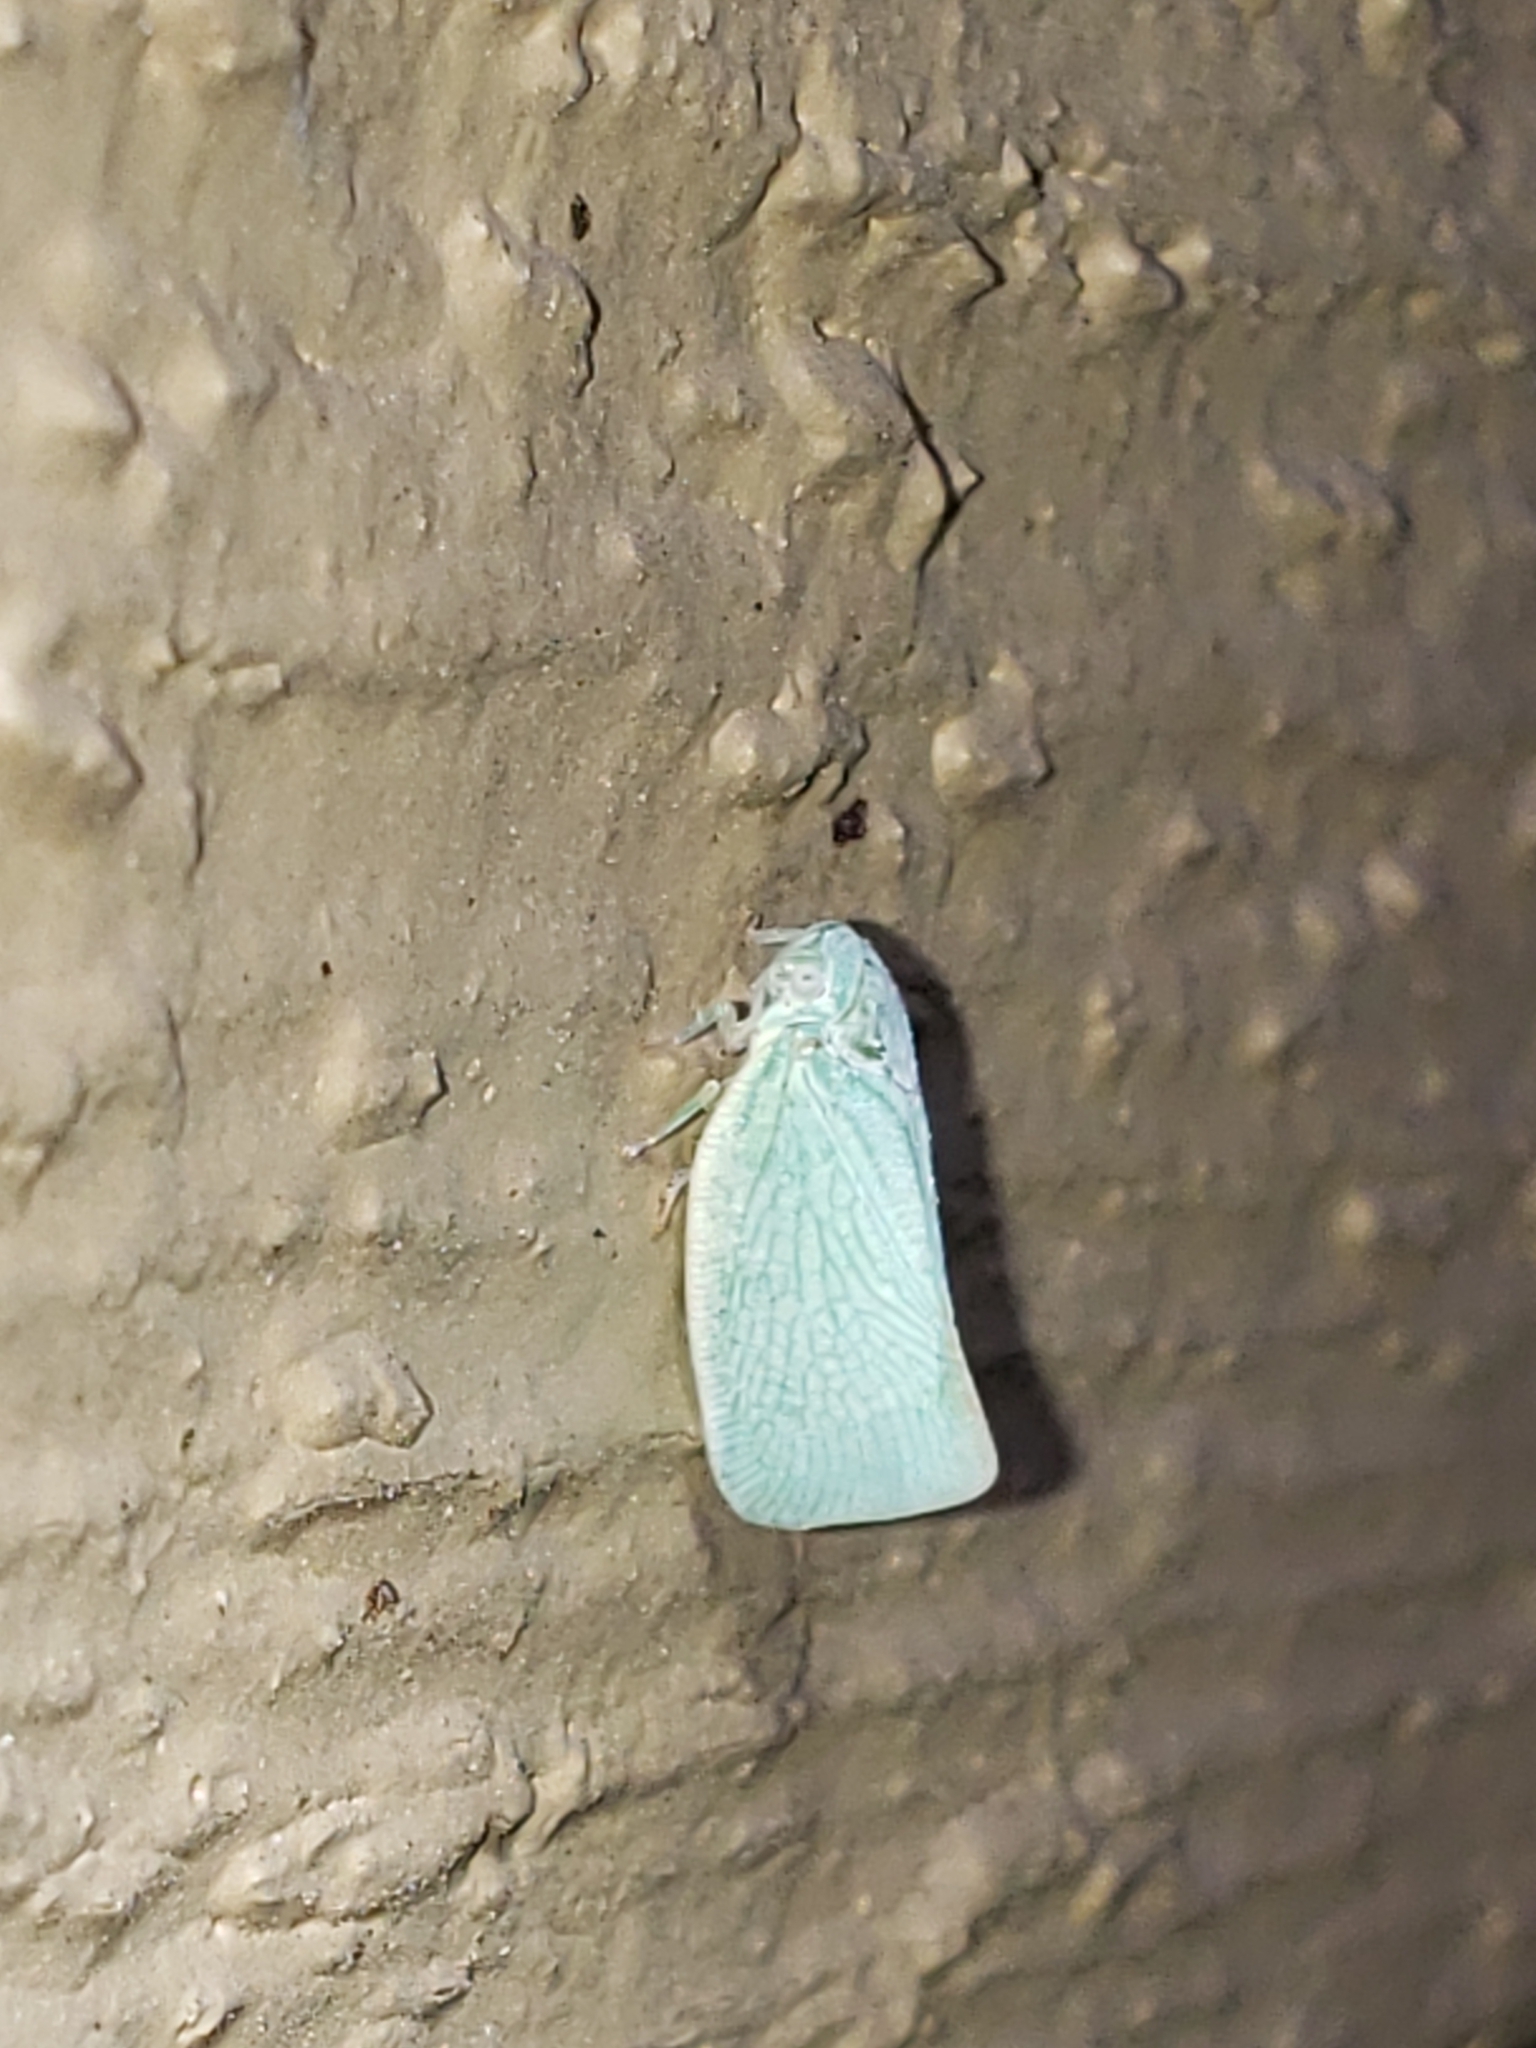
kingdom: Animalia
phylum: Arthropoda
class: Insecta
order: Hemiptera
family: Flatidae
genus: Flatormenis
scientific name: Flatormenis proxima
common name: Northern flatid planthopper
